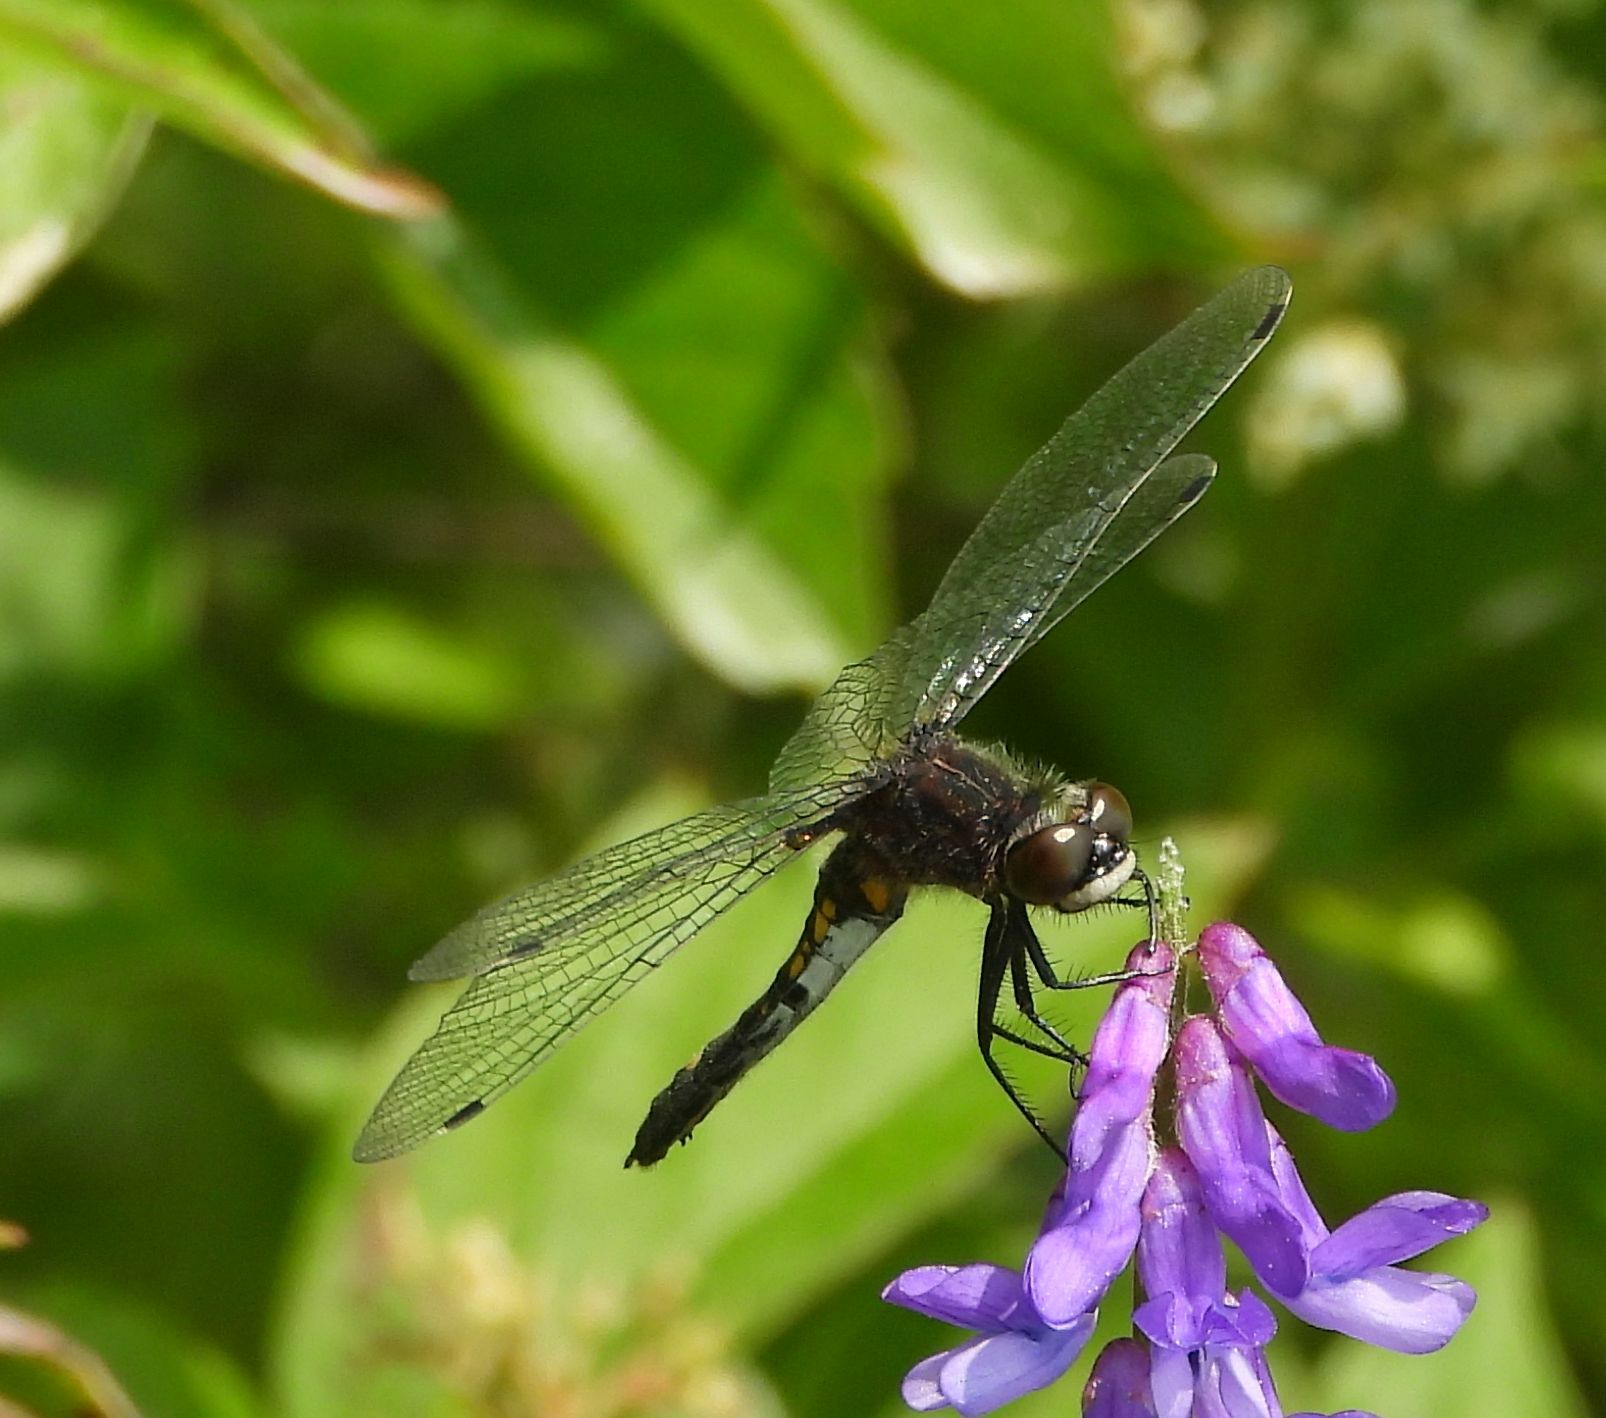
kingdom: Animalia
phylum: Arthropoda
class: Insecta
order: Odonata
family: Libellulidae
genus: Leucorrhinia
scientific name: Leucorrhinia intacta
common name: Dot-tailed whiteface
